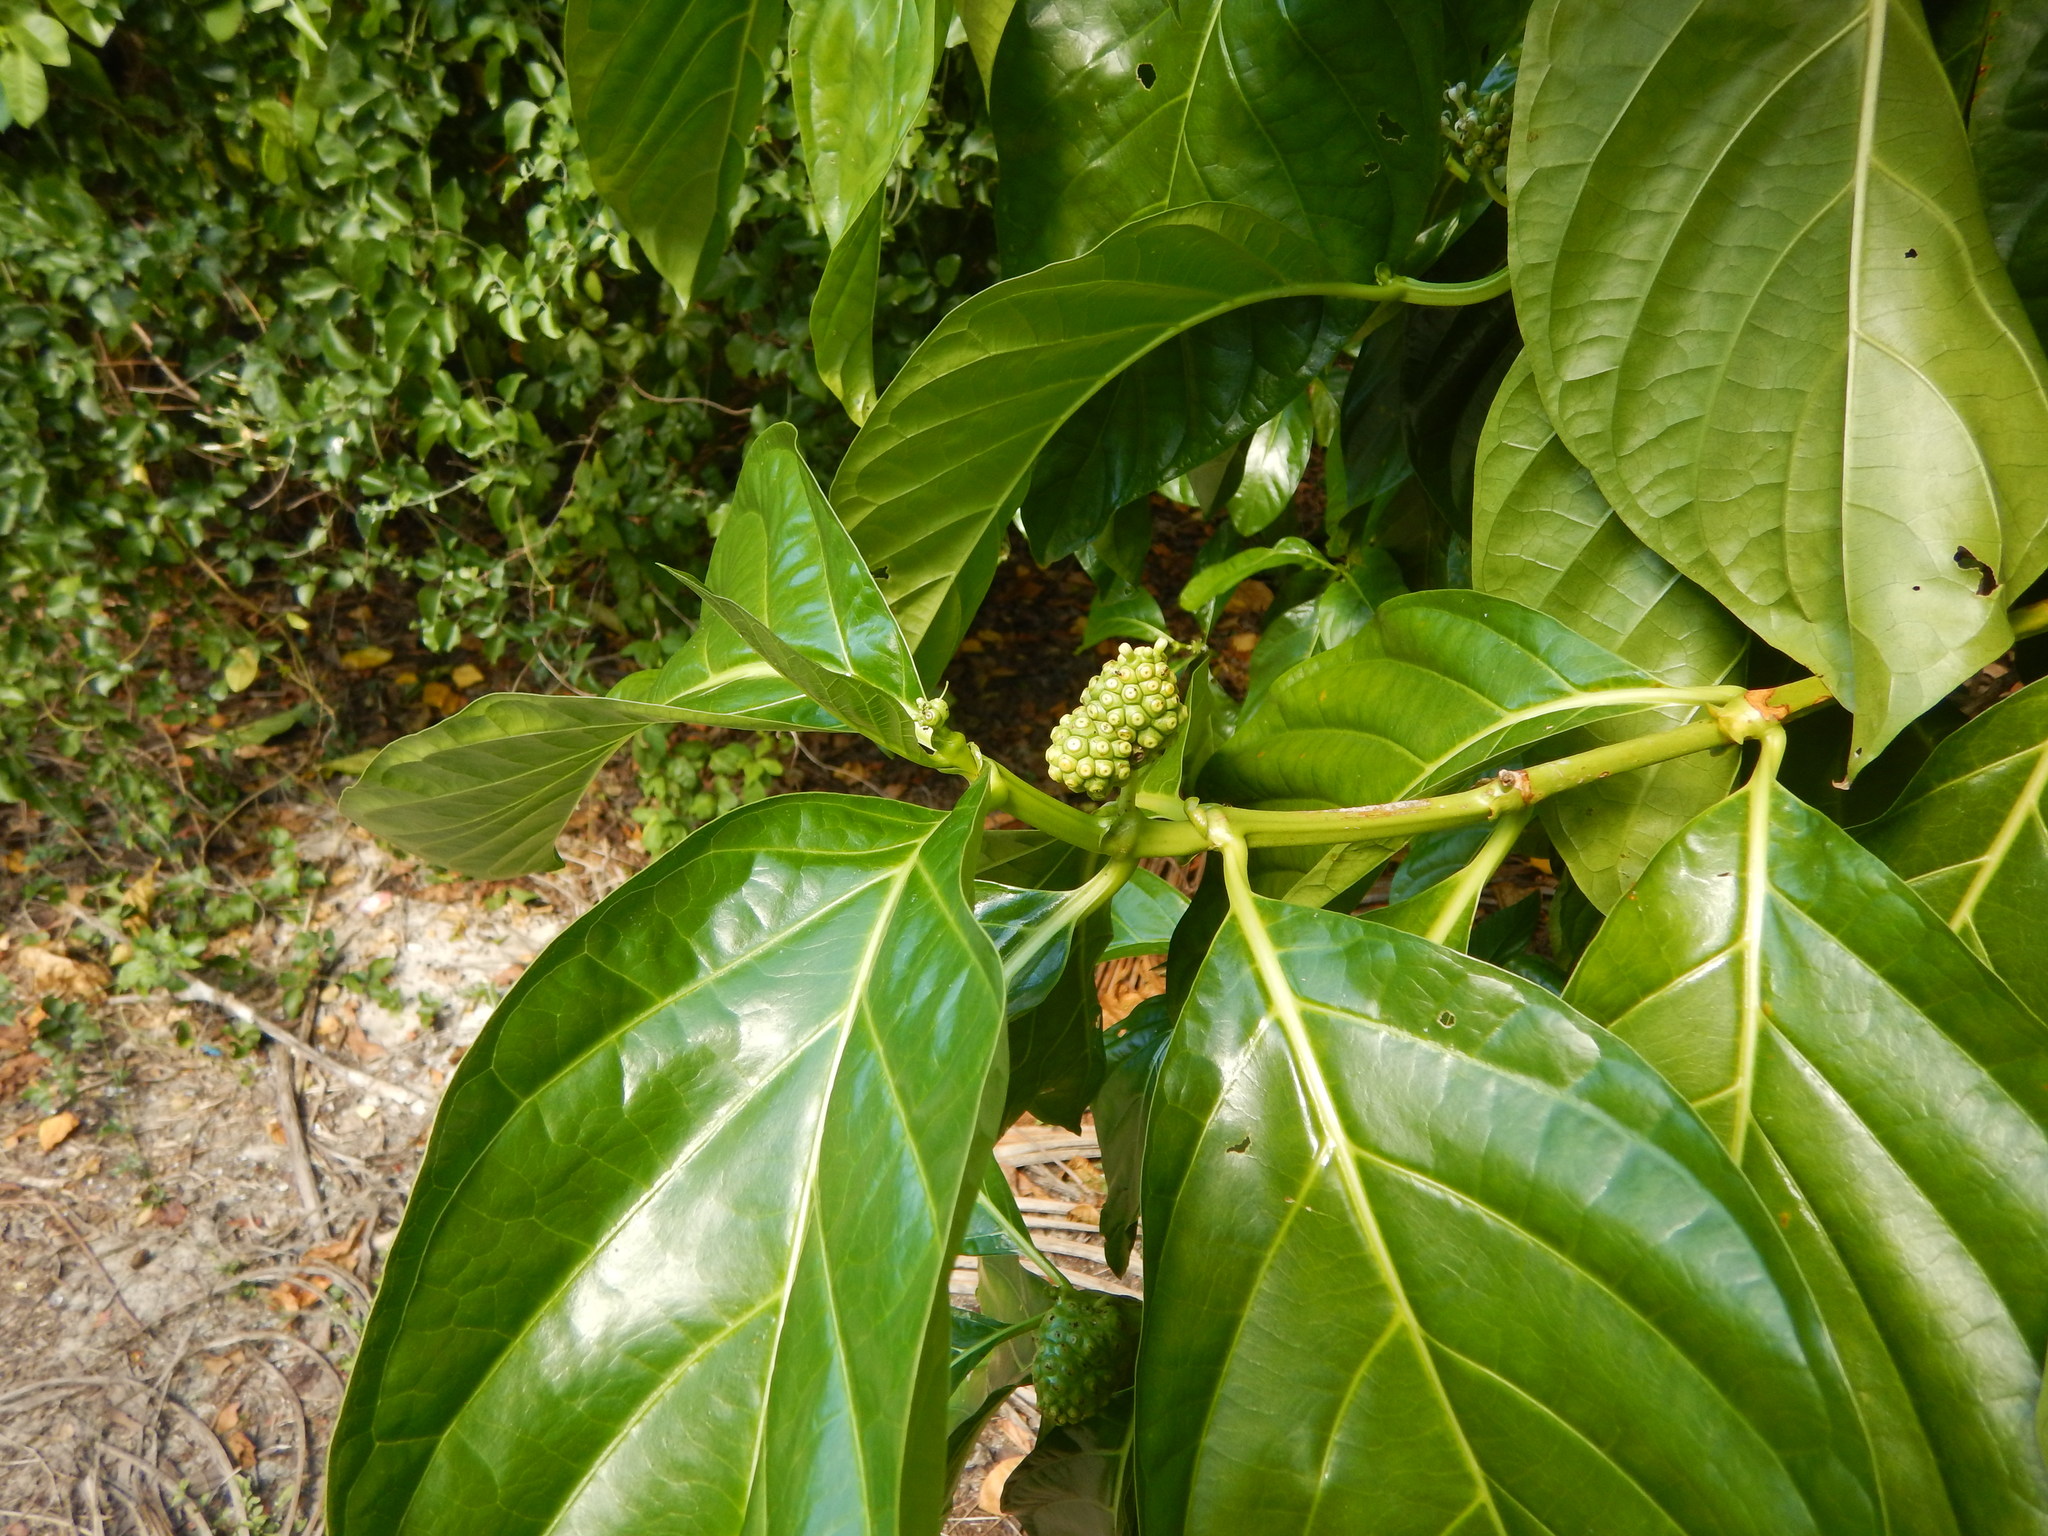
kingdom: Plantae
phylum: Tracheophyta
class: Magnoliopsida
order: Gentianales
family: Rubiaceae
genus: Morinda
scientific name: Morinda citrifolia
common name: Indian-mulberry
